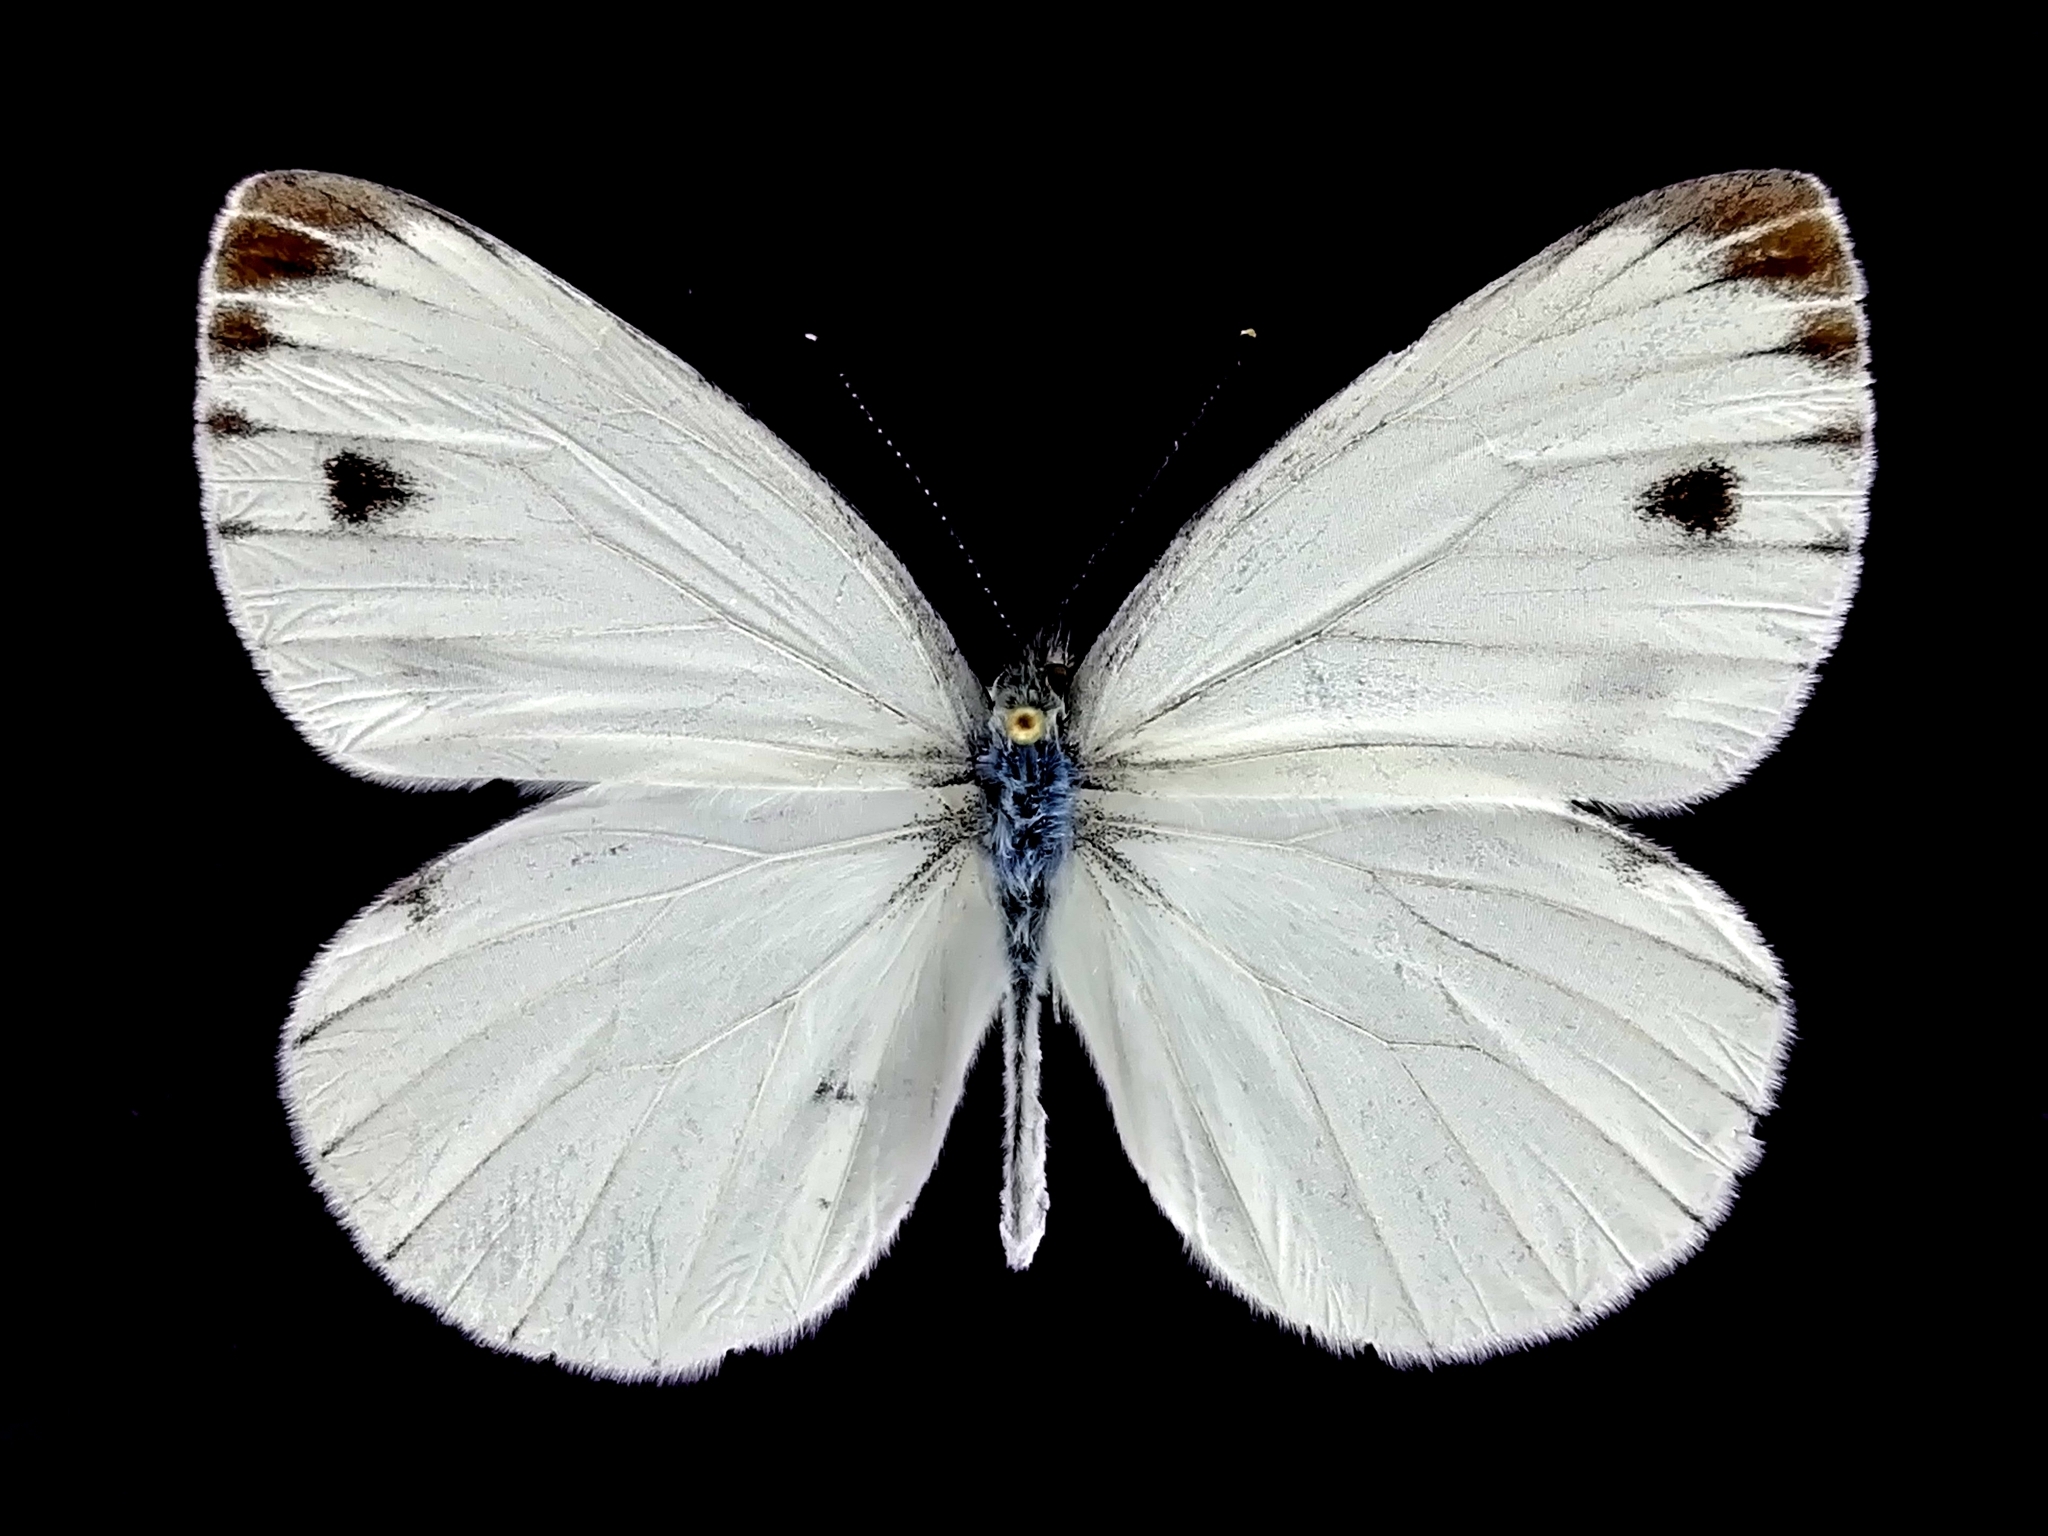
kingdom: Animalia
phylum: Arthropoda
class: Insecta
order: Lepidoptera
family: Pieridae
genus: Pieris
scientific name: Pieris melete
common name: Asian green-veined white
